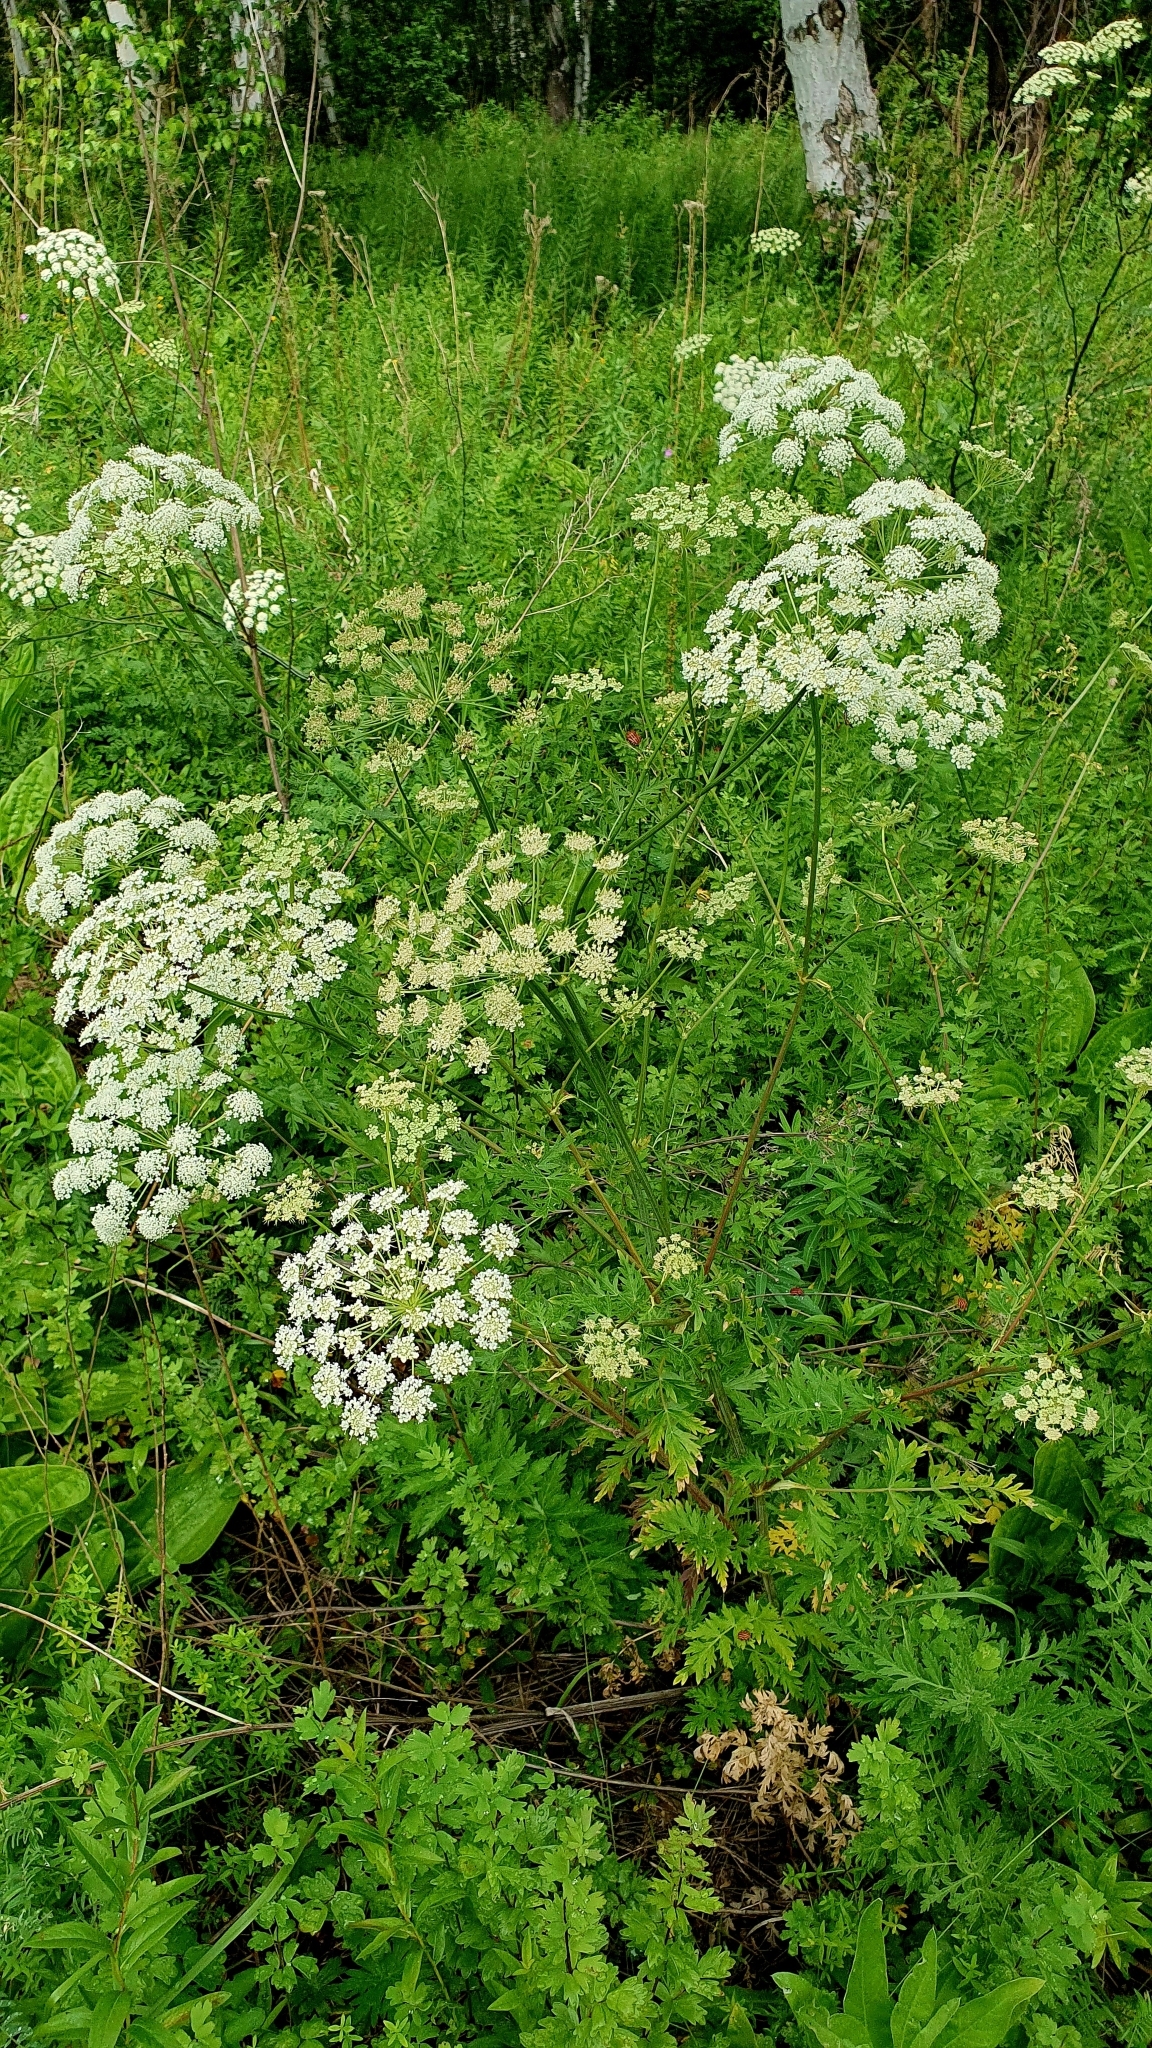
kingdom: Plantae
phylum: Tracheophyta
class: Magnoliopsida
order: Apiales
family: Apiaceae
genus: Seseli
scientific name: Seseli libanotis
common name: Mooncarrot
